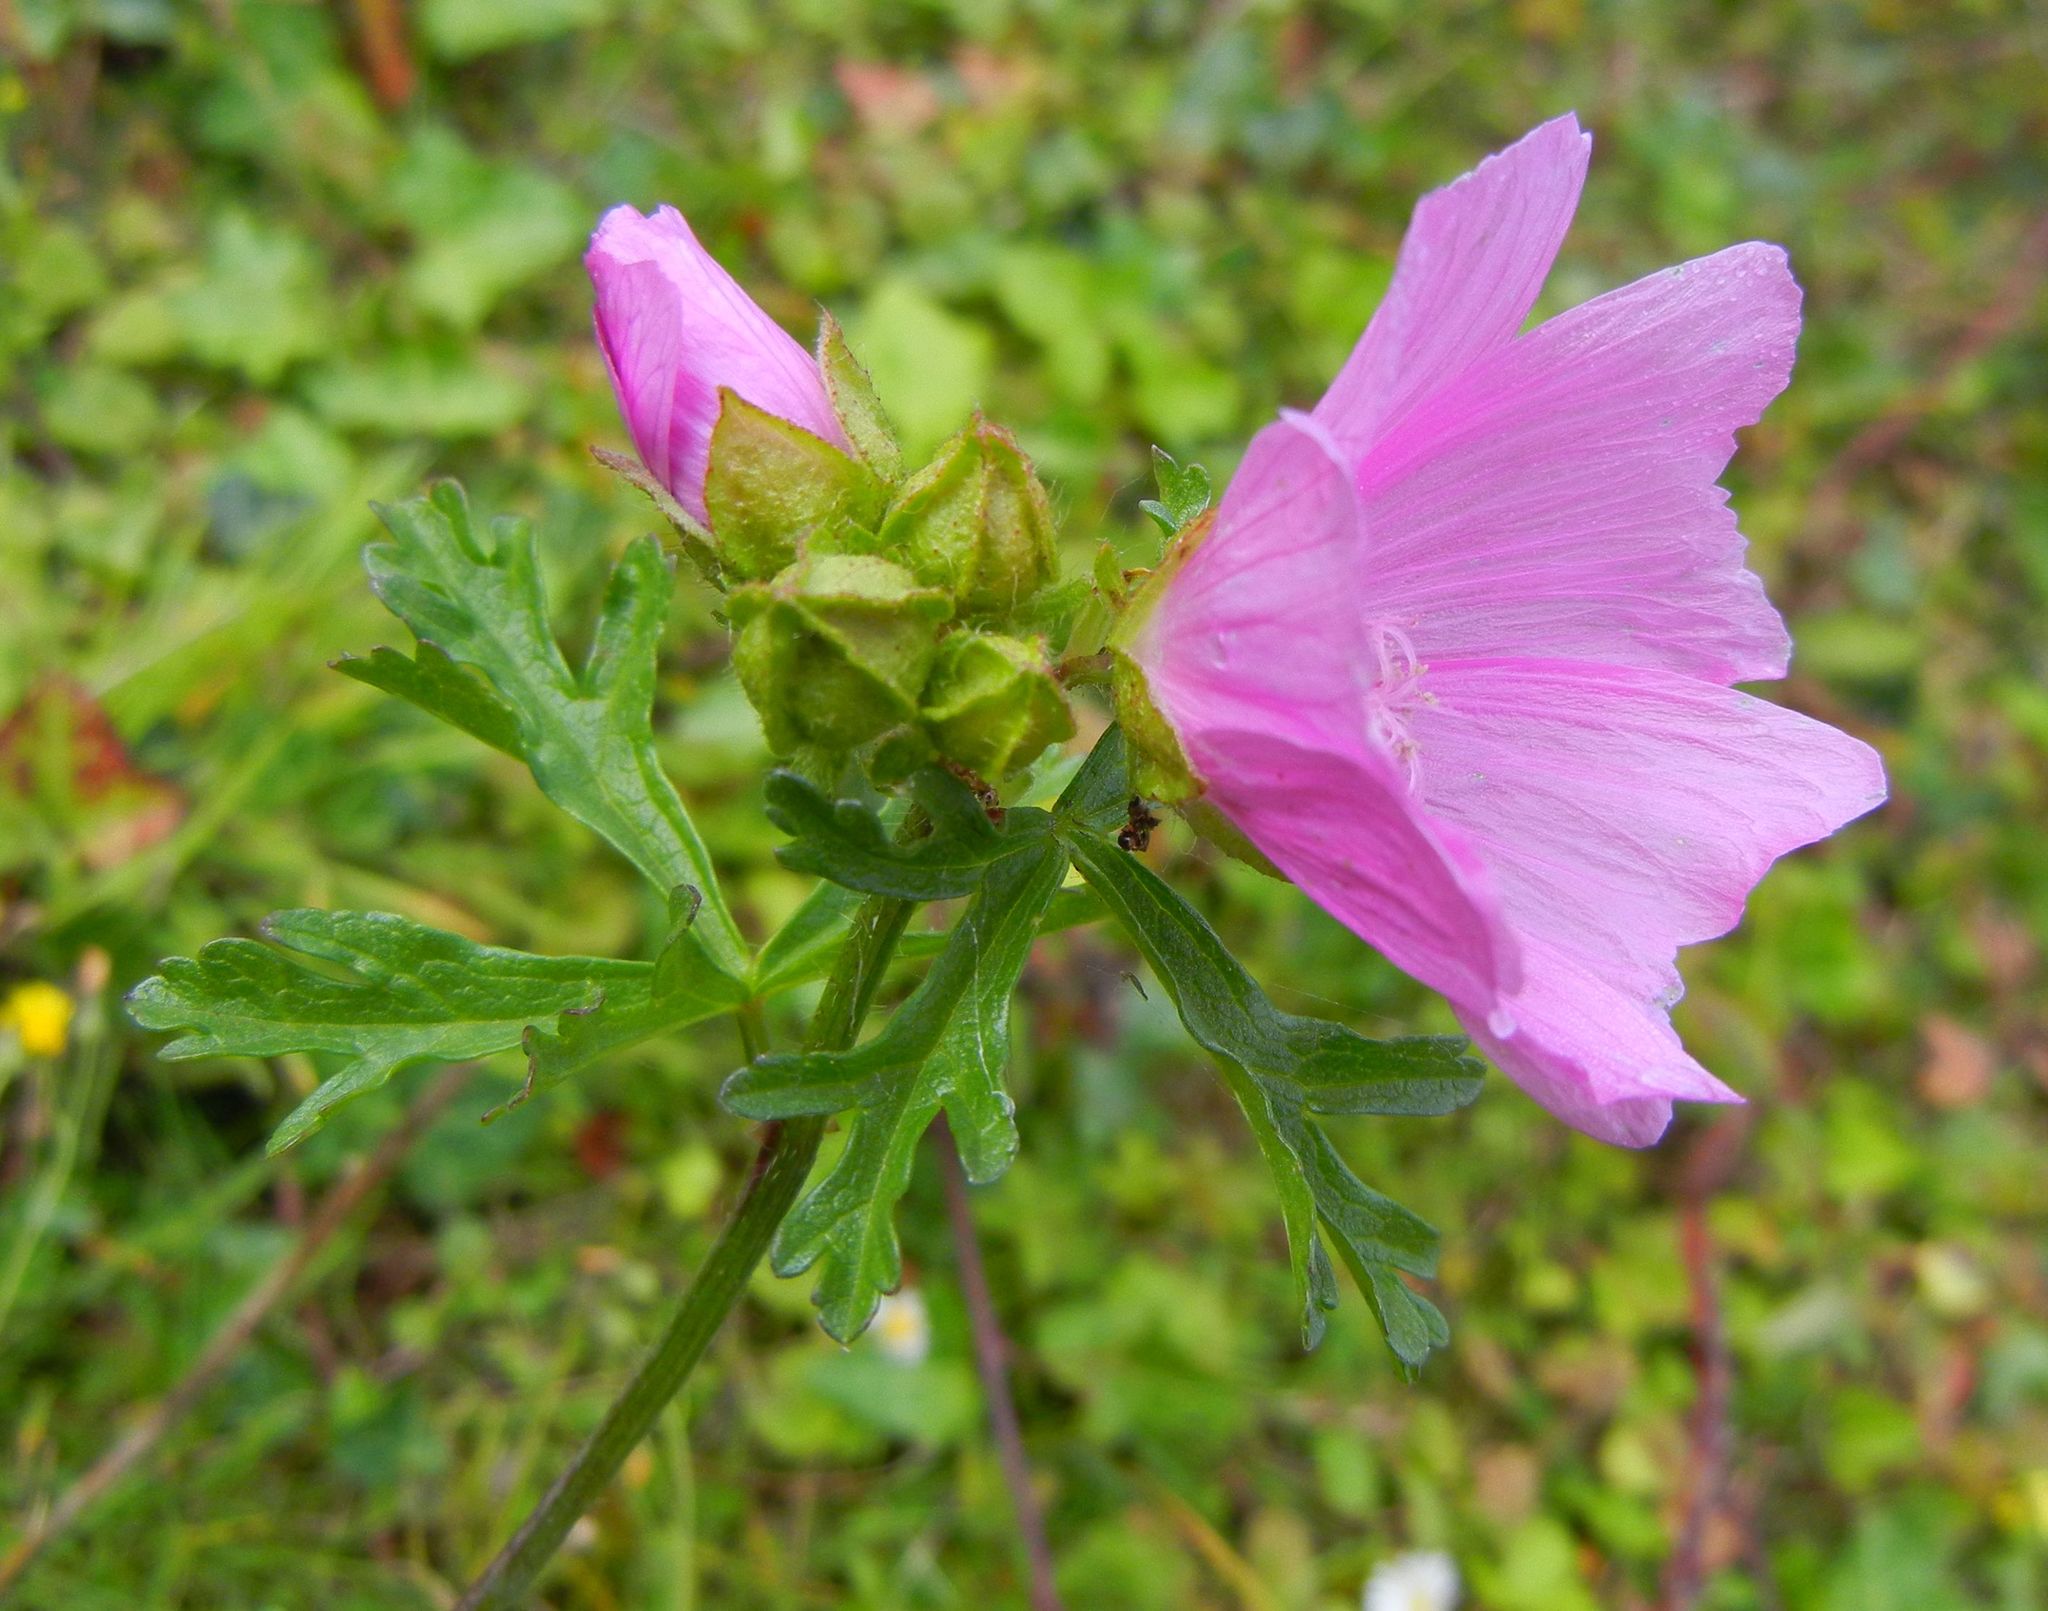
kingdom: Plantae
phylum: Tracheophyta
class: Magnoliopsida
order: Malvales
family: Malvaceae
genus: Malva
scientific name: Malva moschata
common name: Musk mallow
